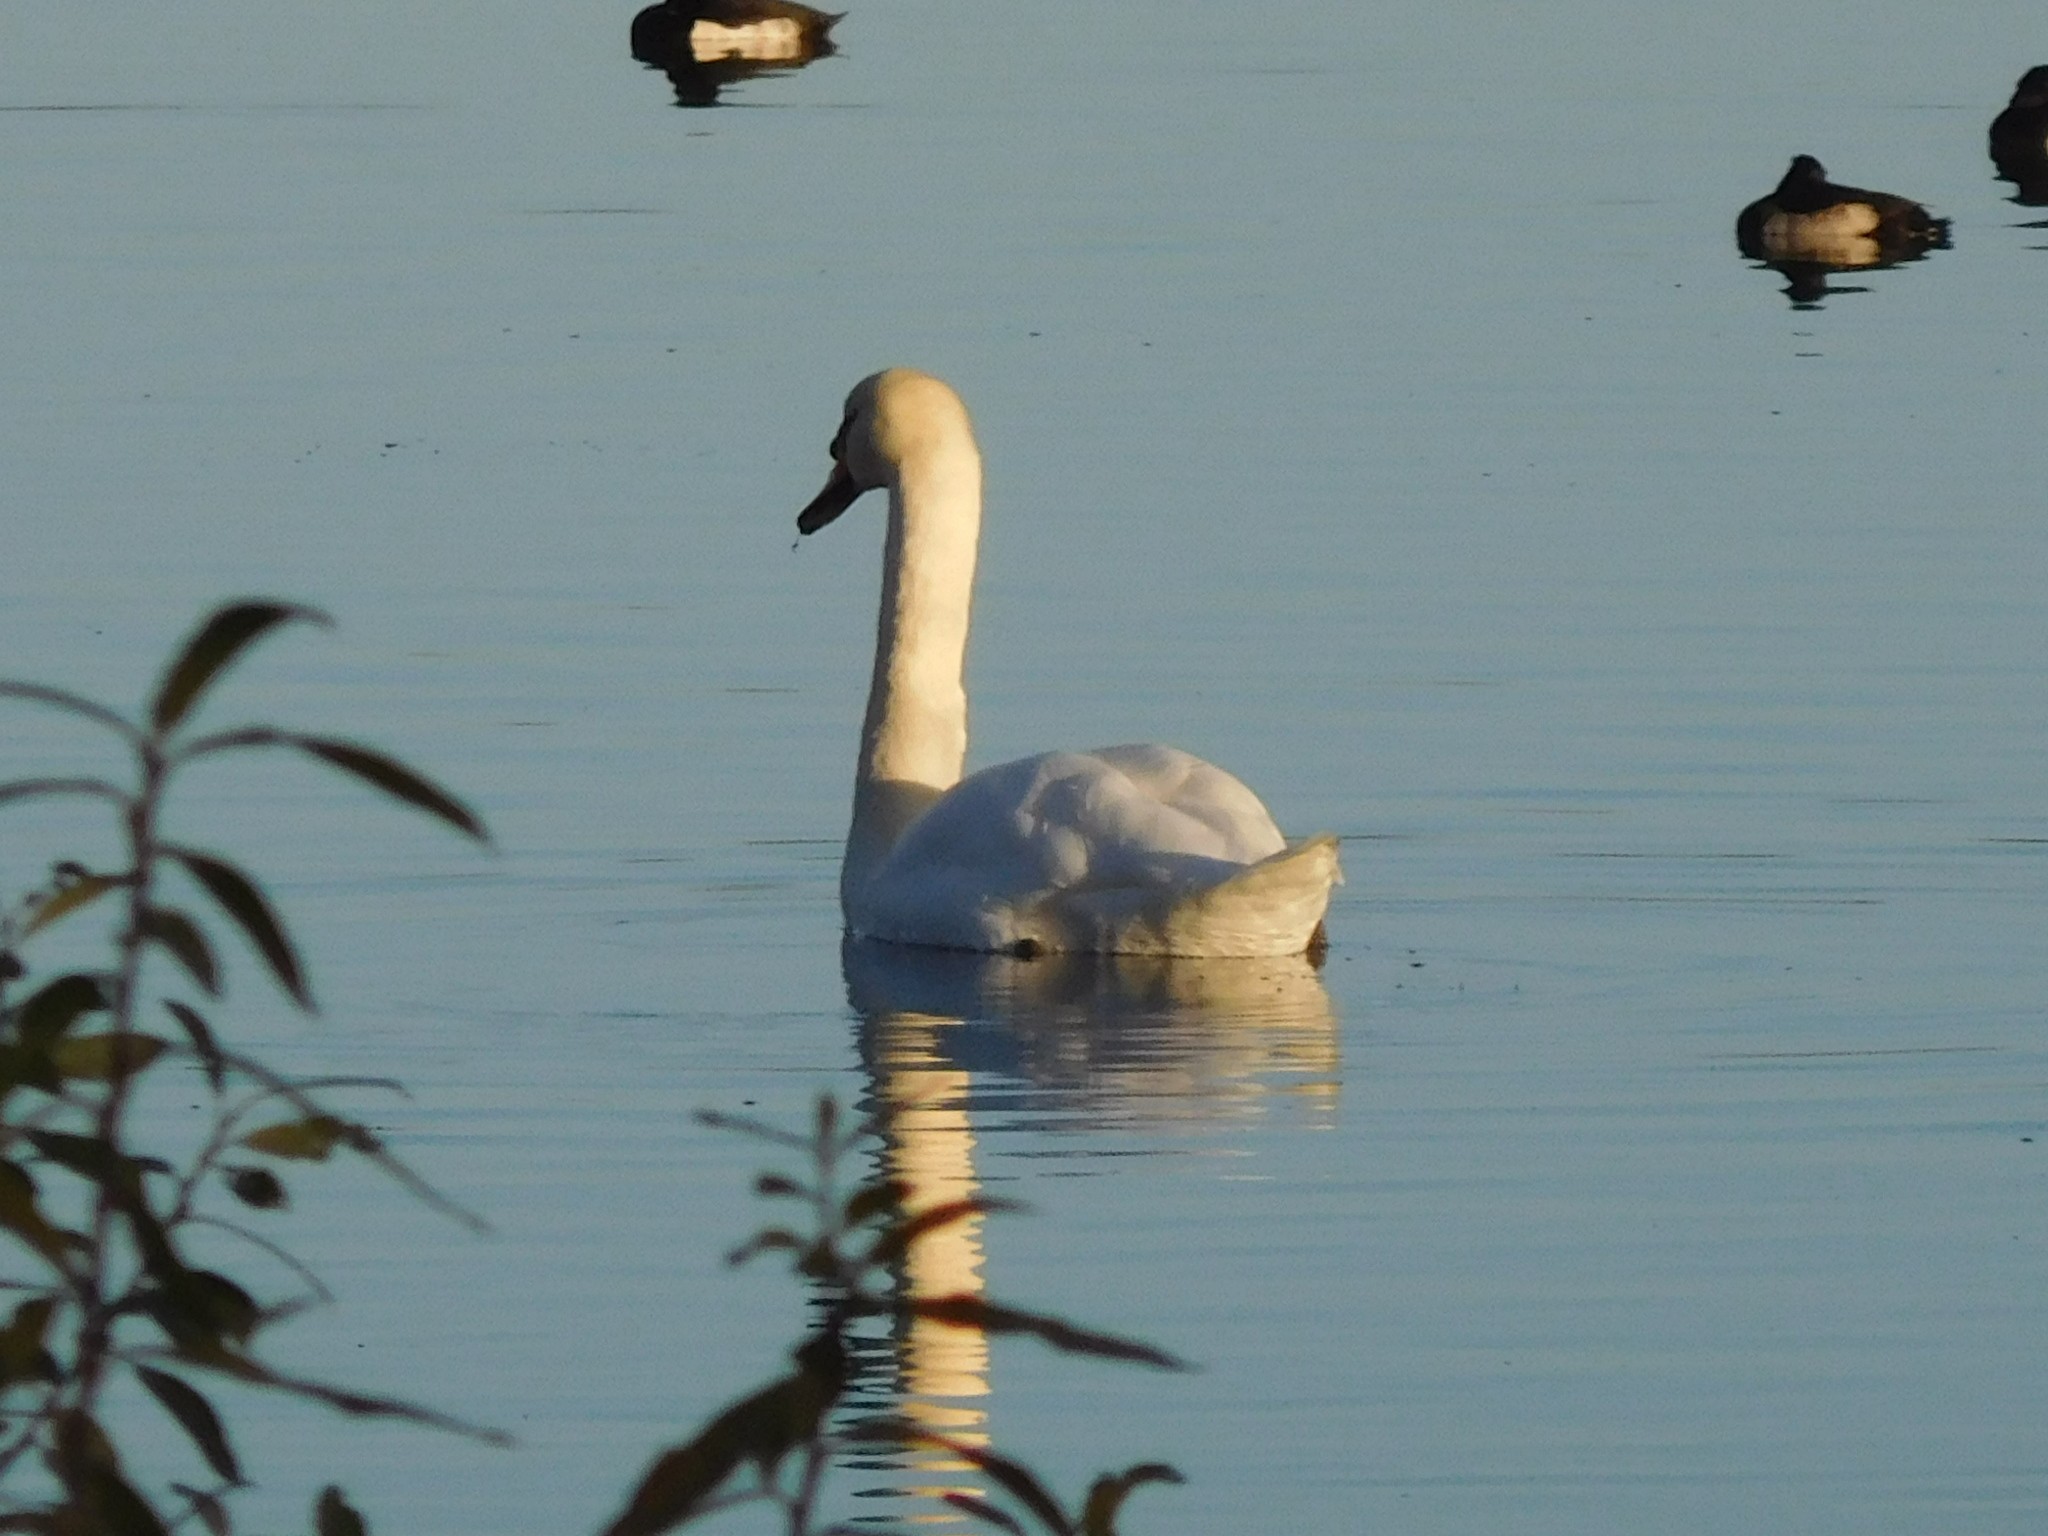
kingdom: Animalia
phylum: Chordata
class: Aves
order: Anseriformes
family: Anatidae
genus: Cygnus
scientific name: Cygnus olor
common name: Mute swan
